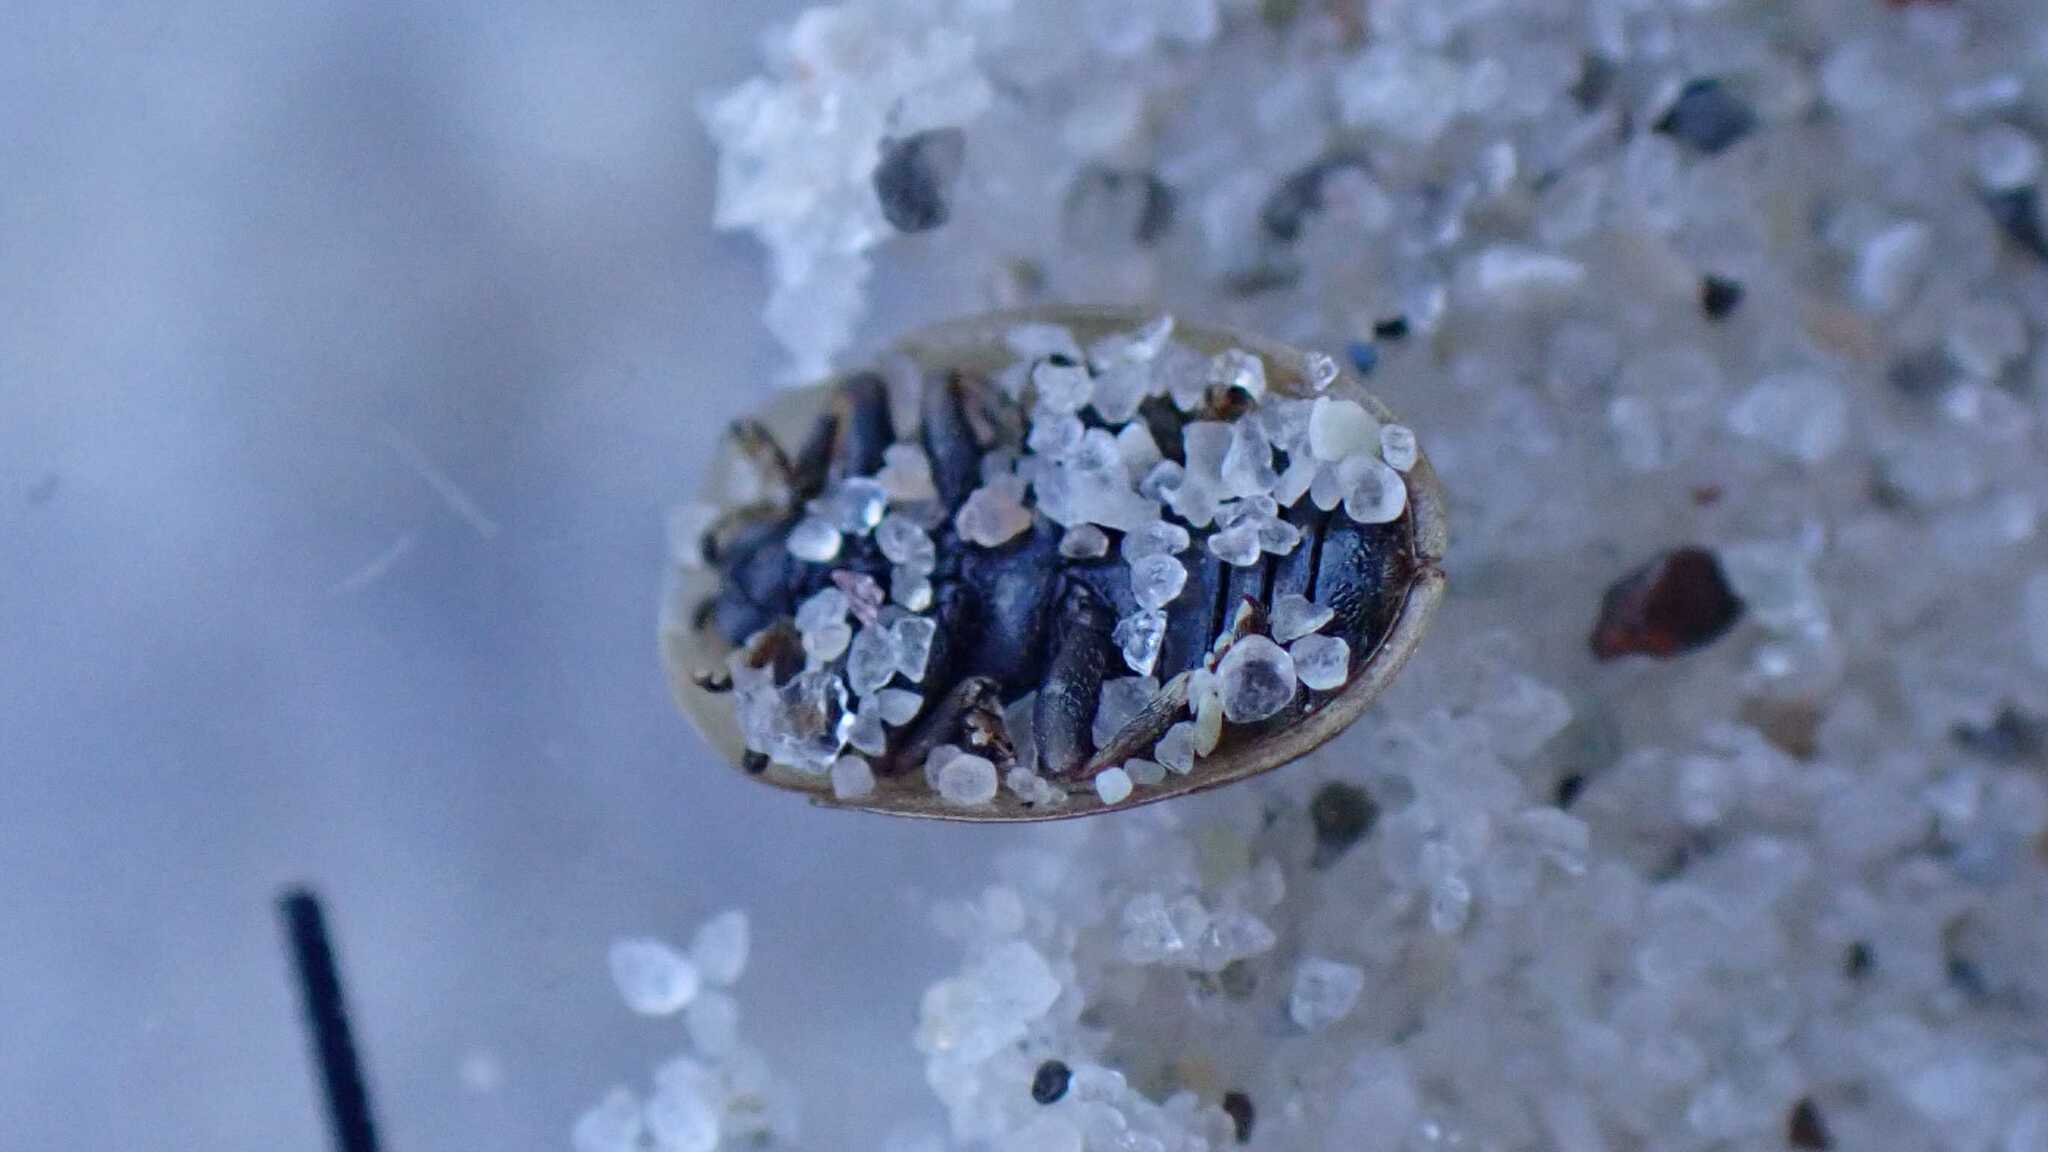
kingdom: Animalia
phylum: Arthropoda
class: Insecta
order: Coleoptera
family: Chrysomelidae
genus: Cassida
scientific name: Cassida nobilis
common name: Leaf beetle
